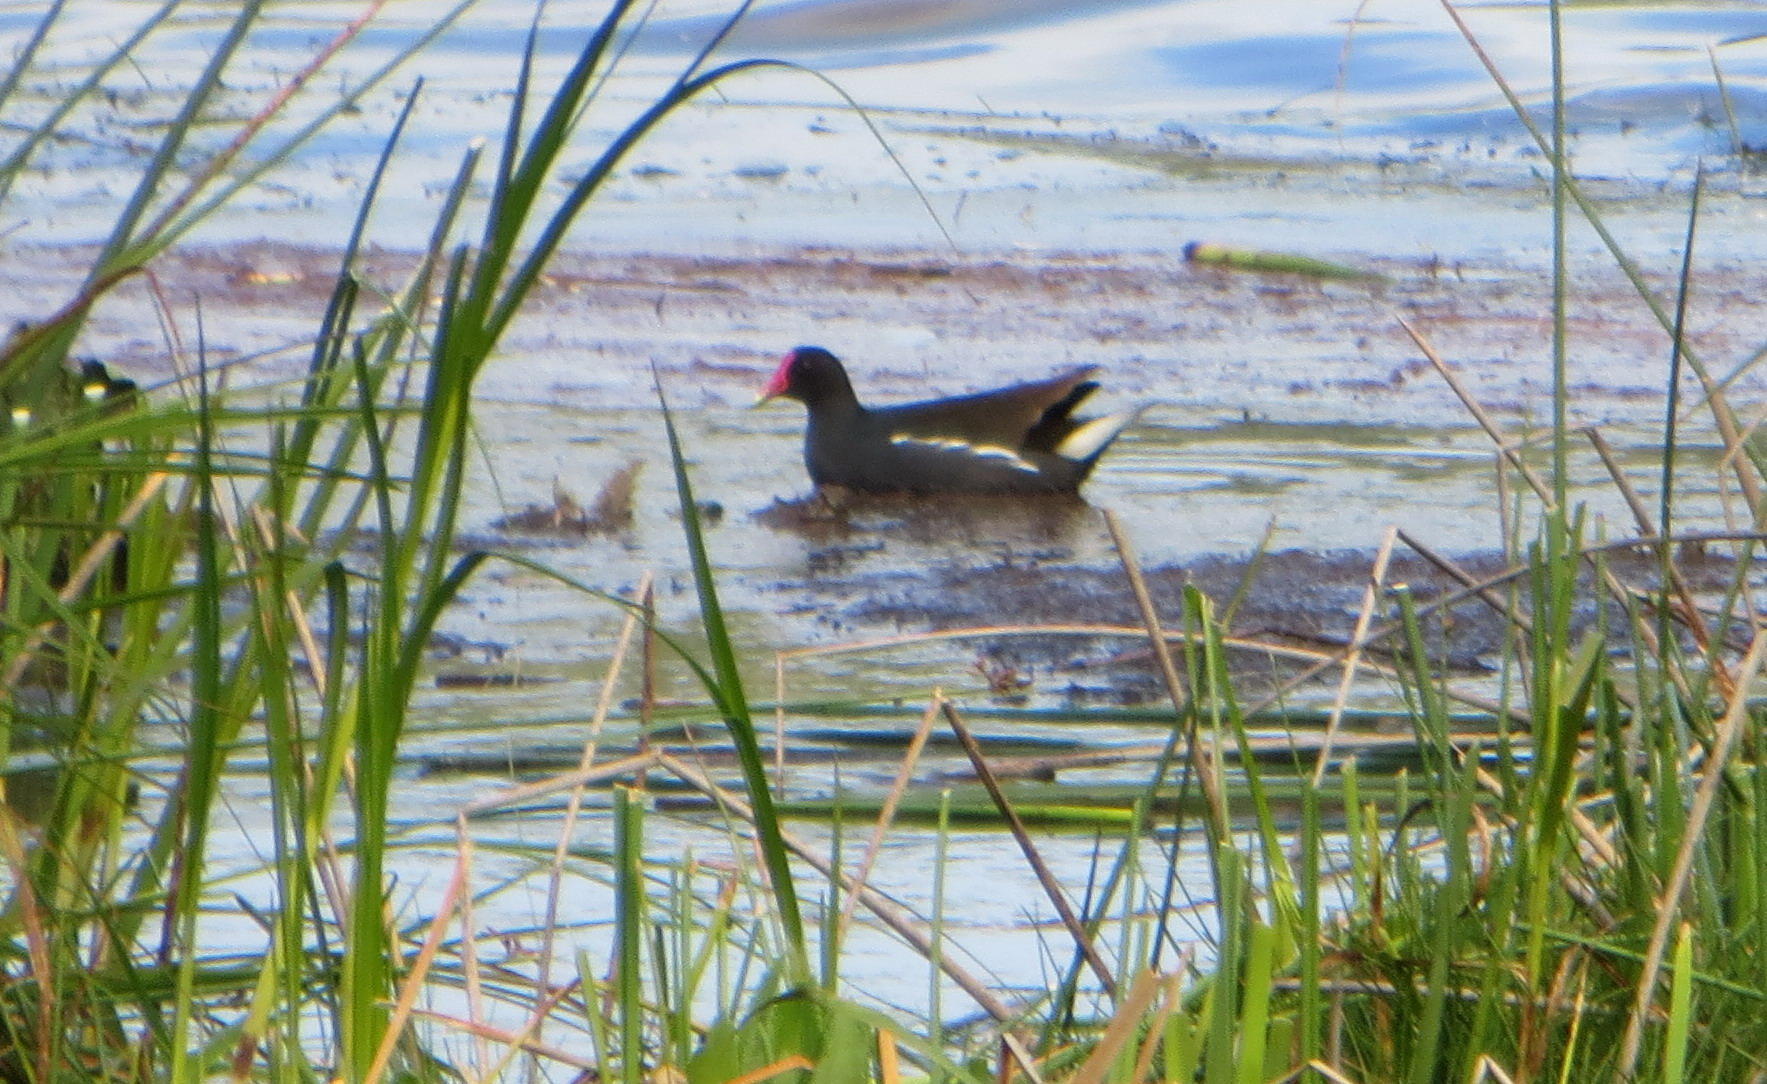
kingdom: Animalia
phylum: Chordata
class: Aves
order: Gruiformes
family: Rallidae
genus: Gallinula
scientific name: Gallinula chloropus
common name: Common moorhen
